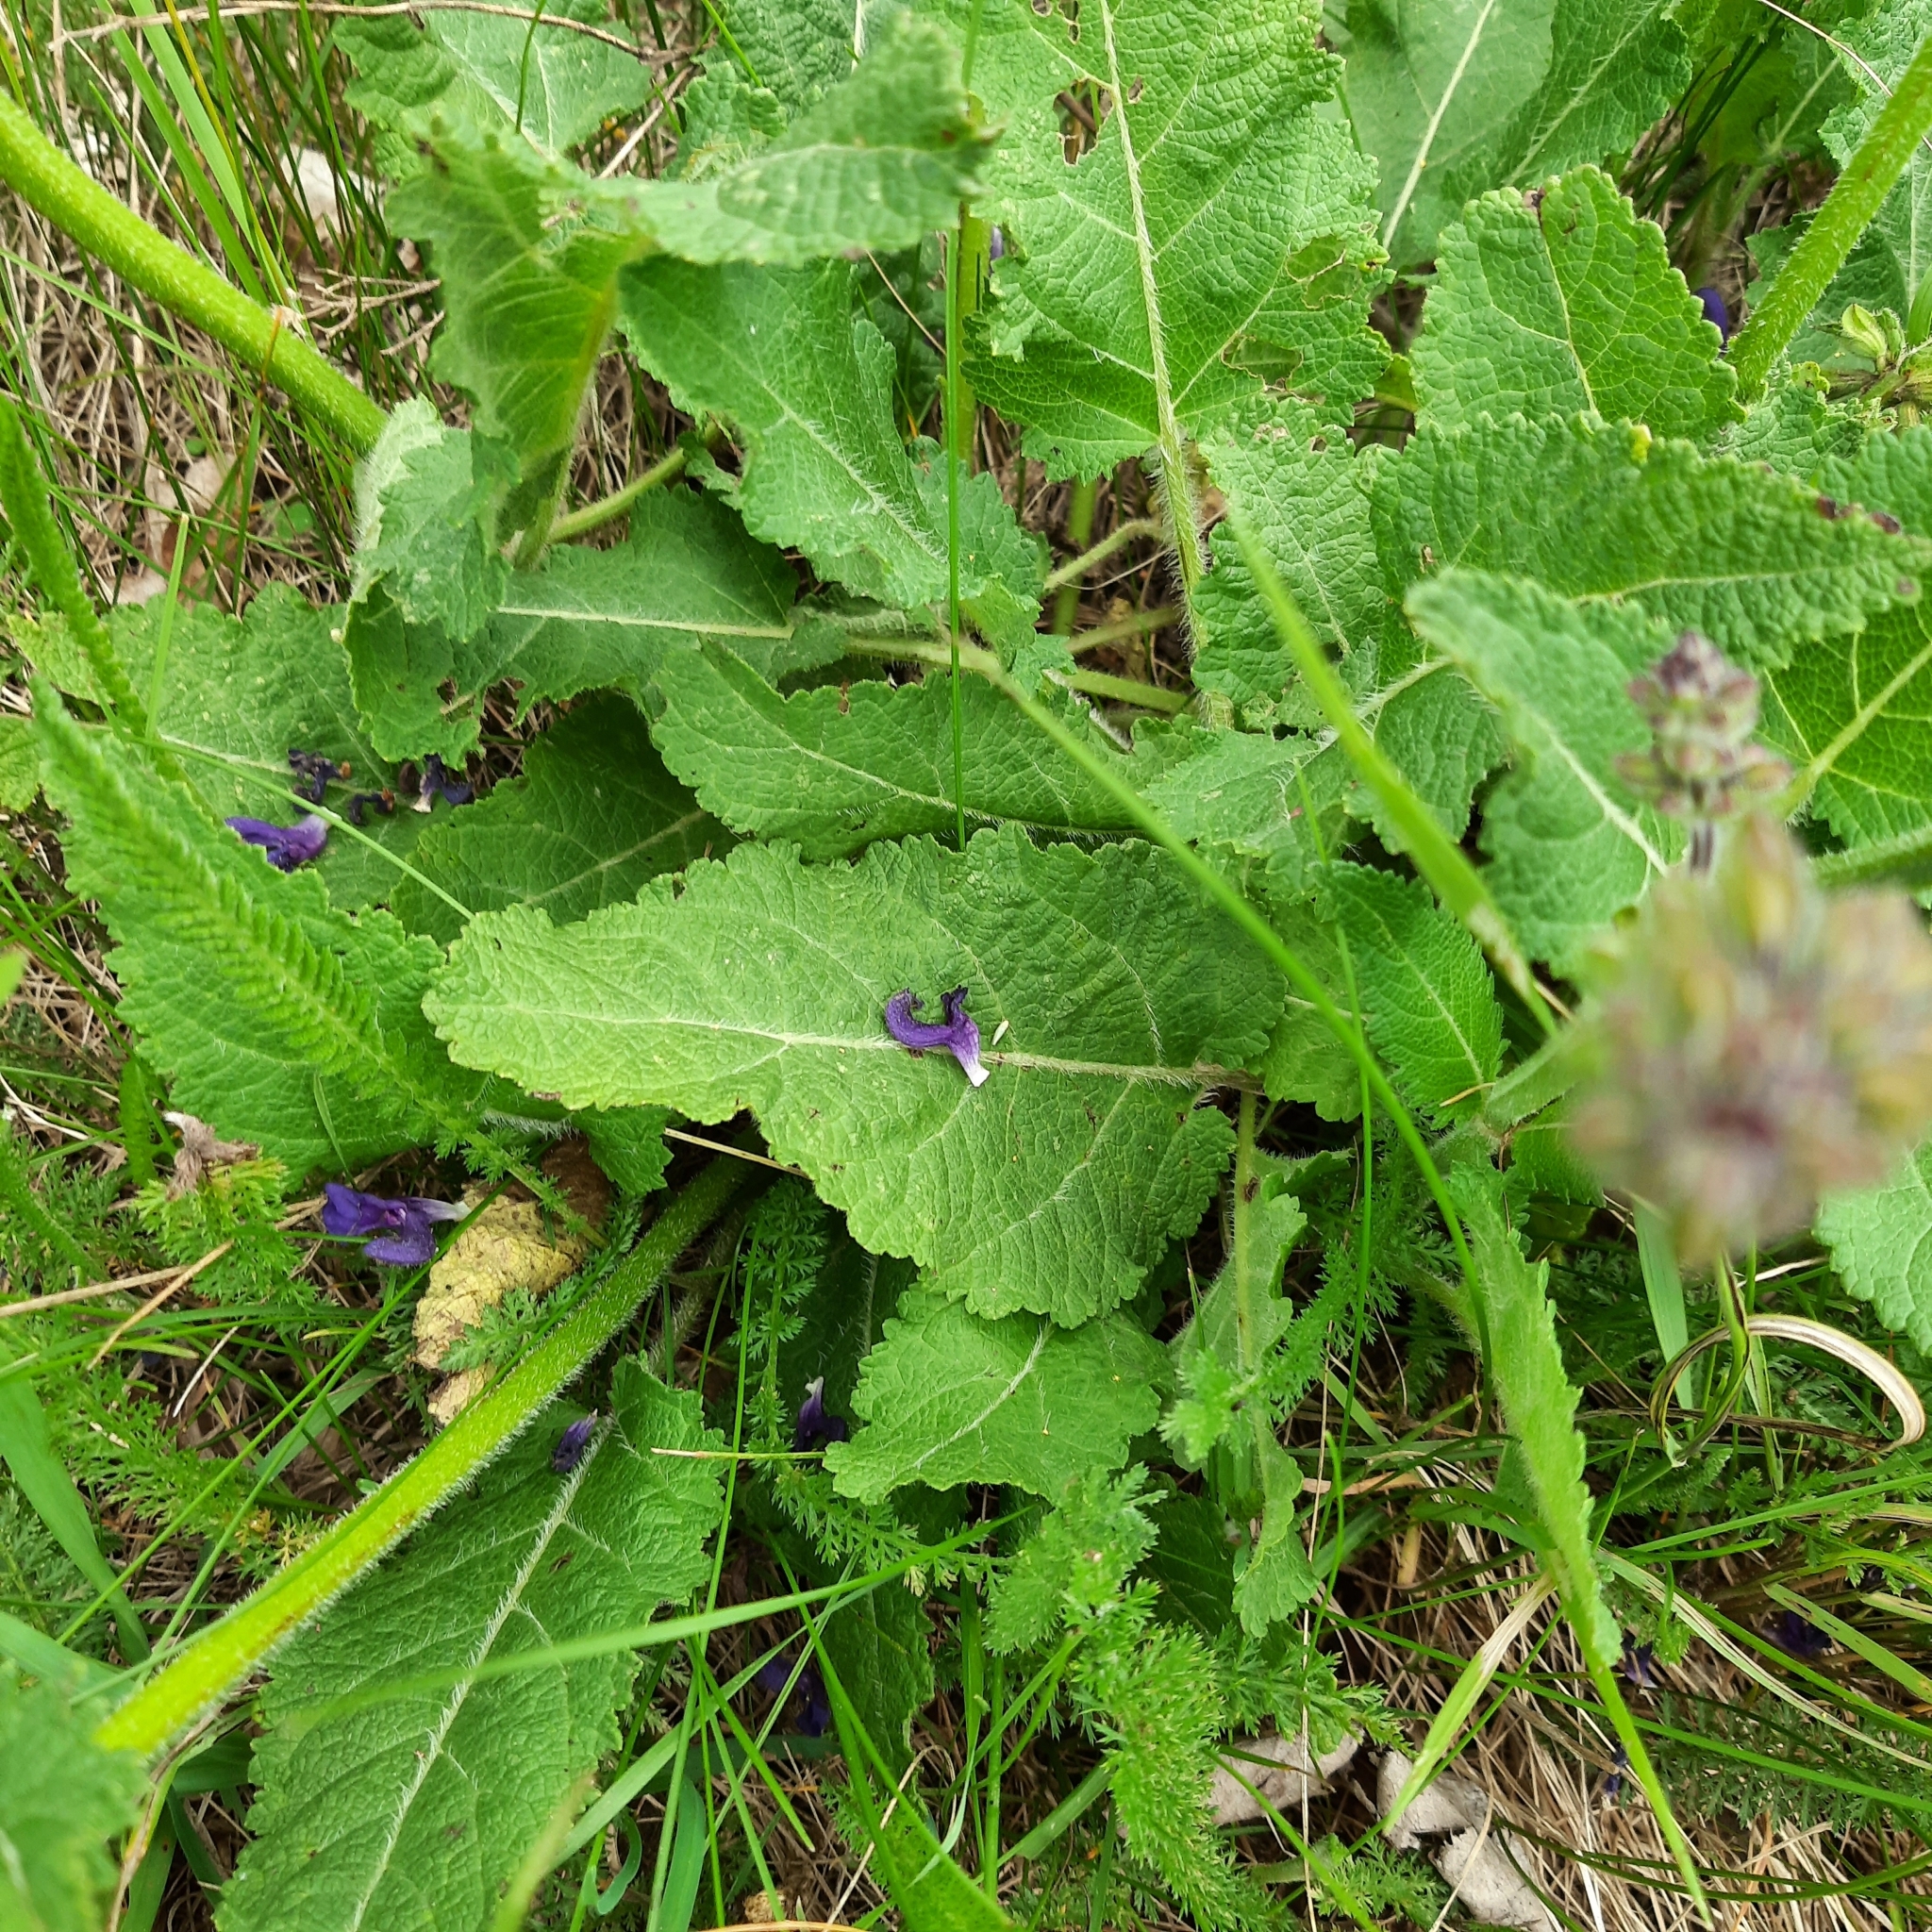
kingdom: Plantae
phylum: Tracheophyta
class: Magnoliopsida
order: Lamiales
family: Lamiaceae
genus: Salvia
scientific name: Salvia pratensis
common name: Meadow sage
